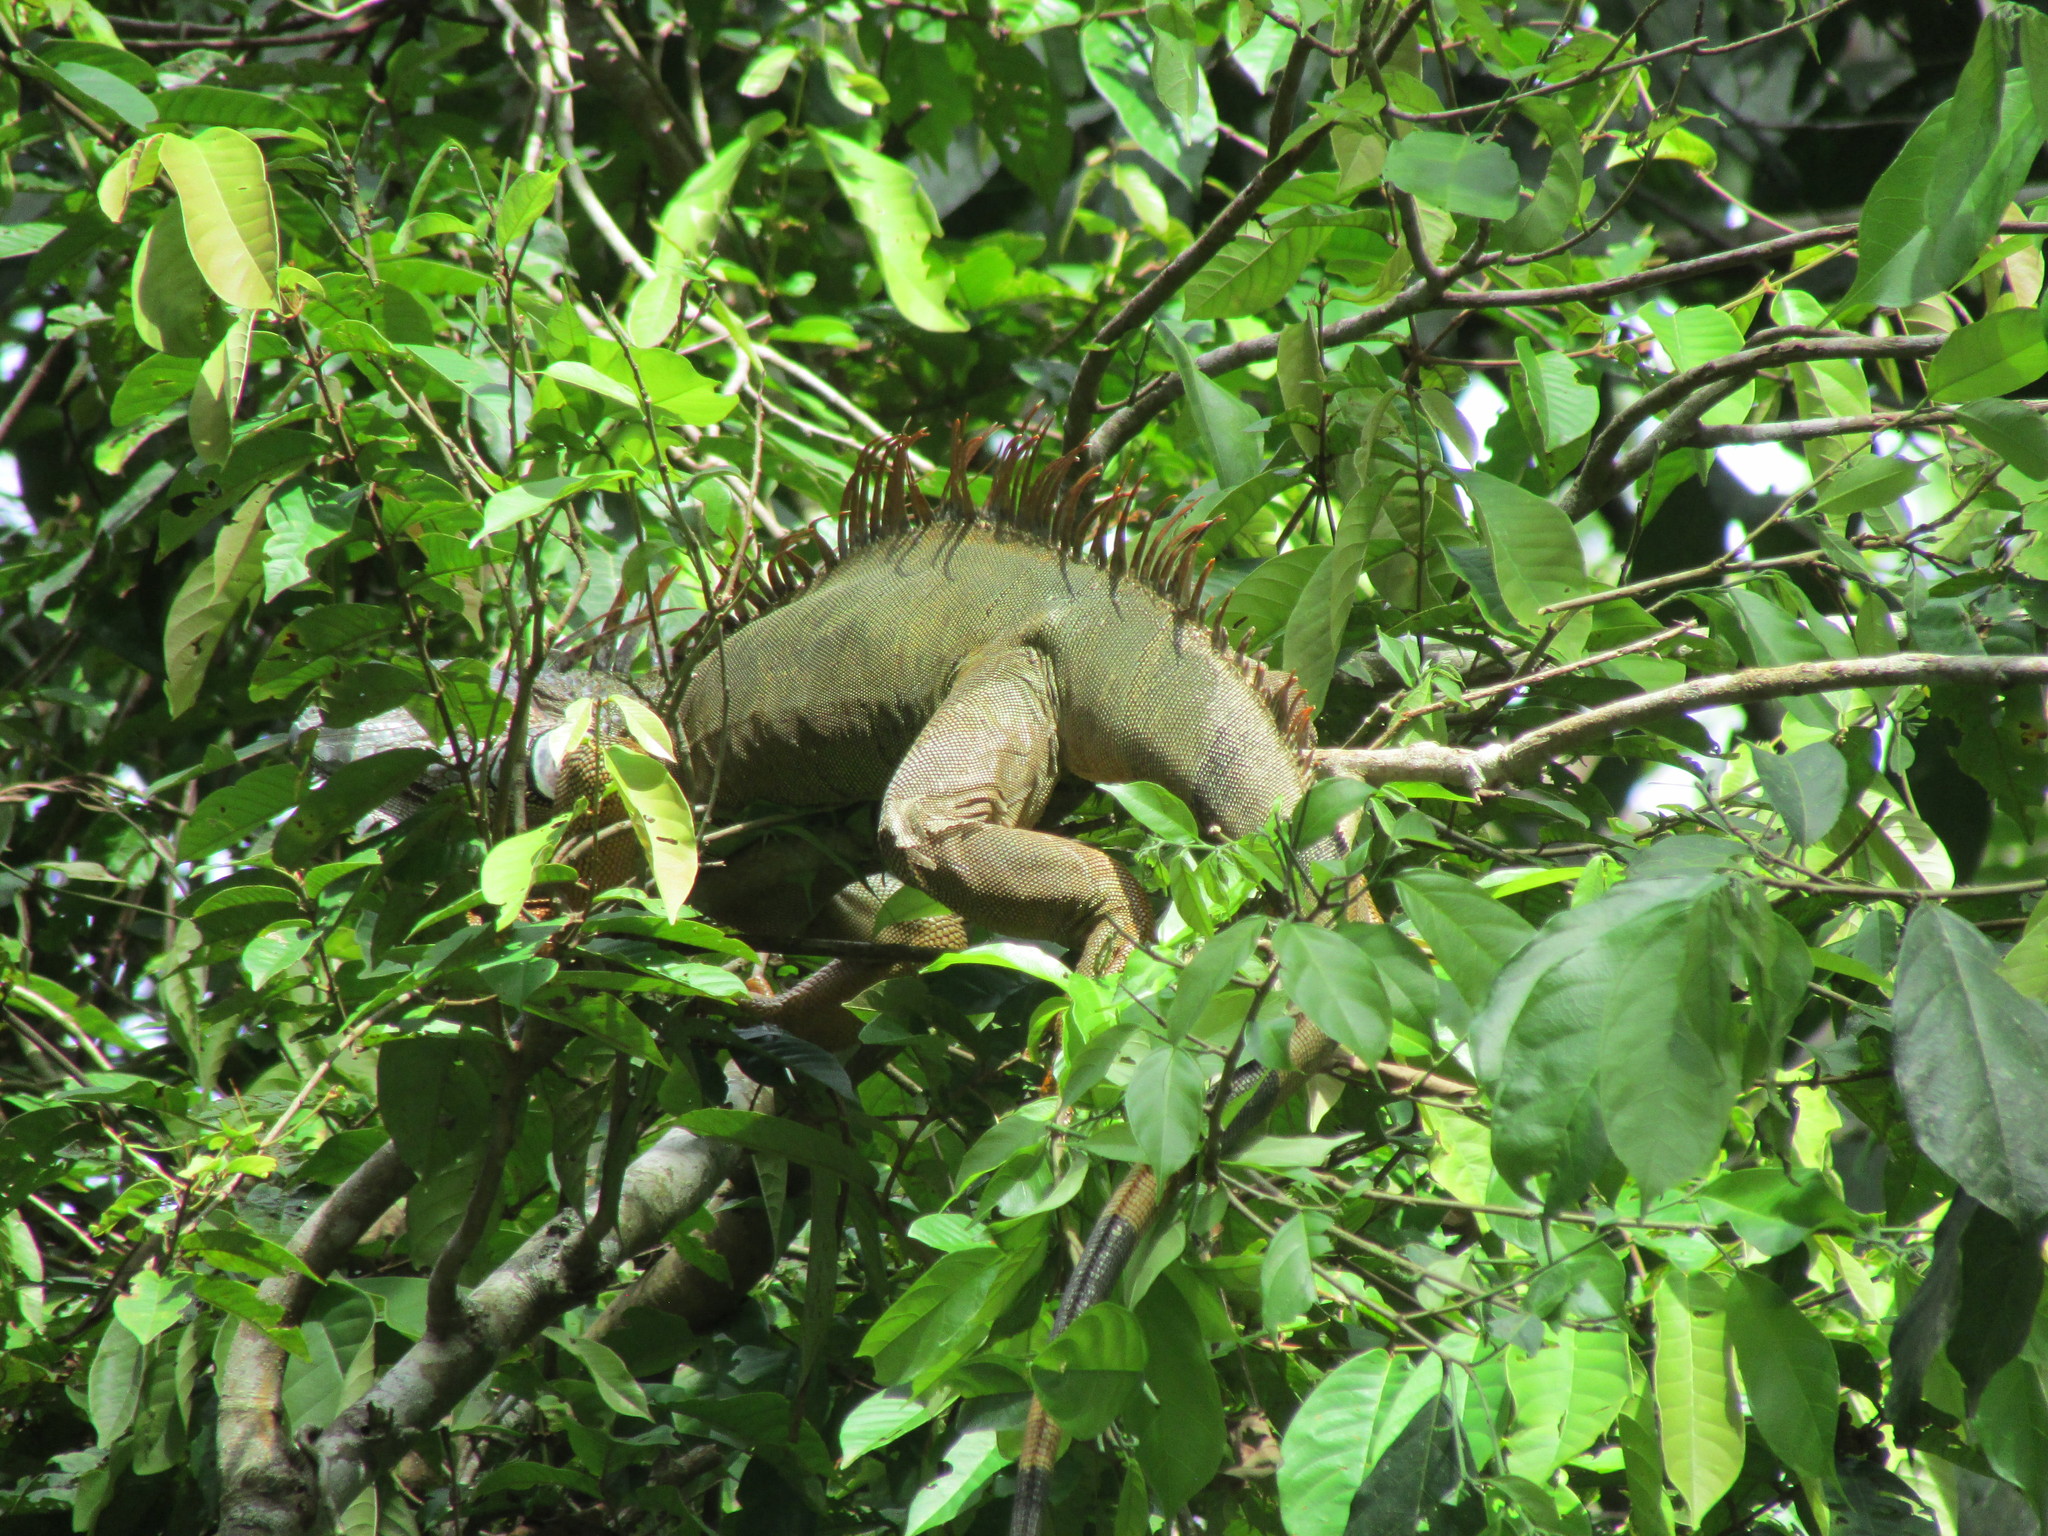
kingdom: Animalia
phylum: Chordata
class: Squamata
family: Iguanidae
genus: Iguana
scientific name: Iguana iguana
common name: Green iguana
